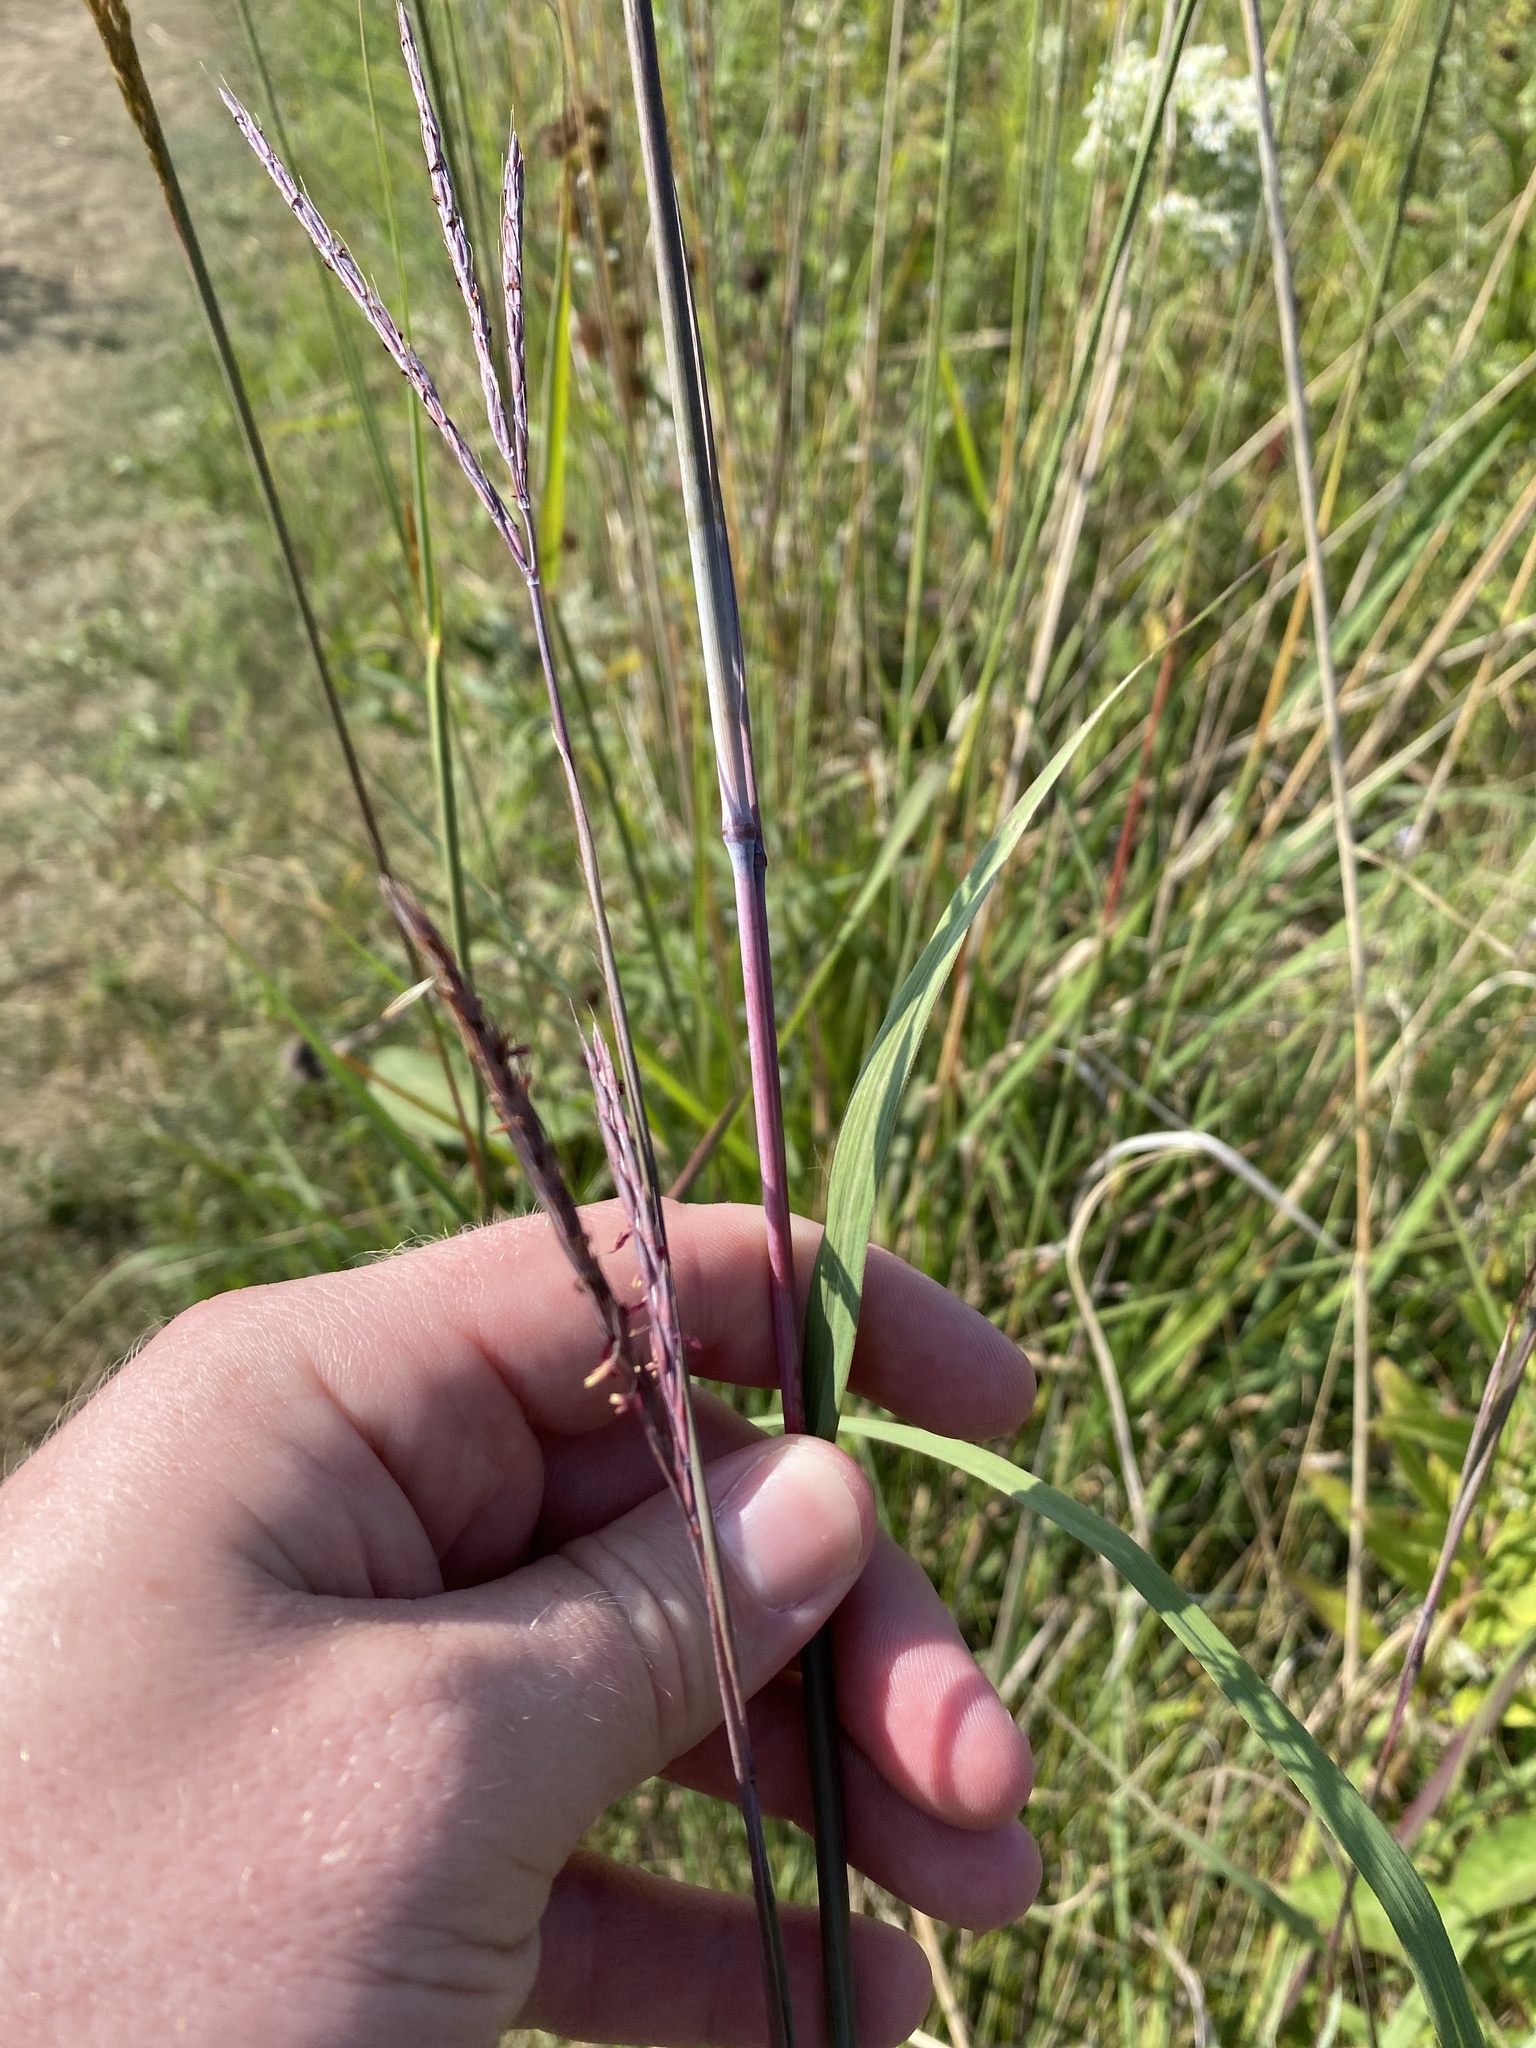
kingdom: Plantae
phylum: Tracheophyta
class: Liliopsida
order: Poales
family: Poaceae
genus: Andropogon
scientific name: Andropogon gerardi
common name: Big bluestem
